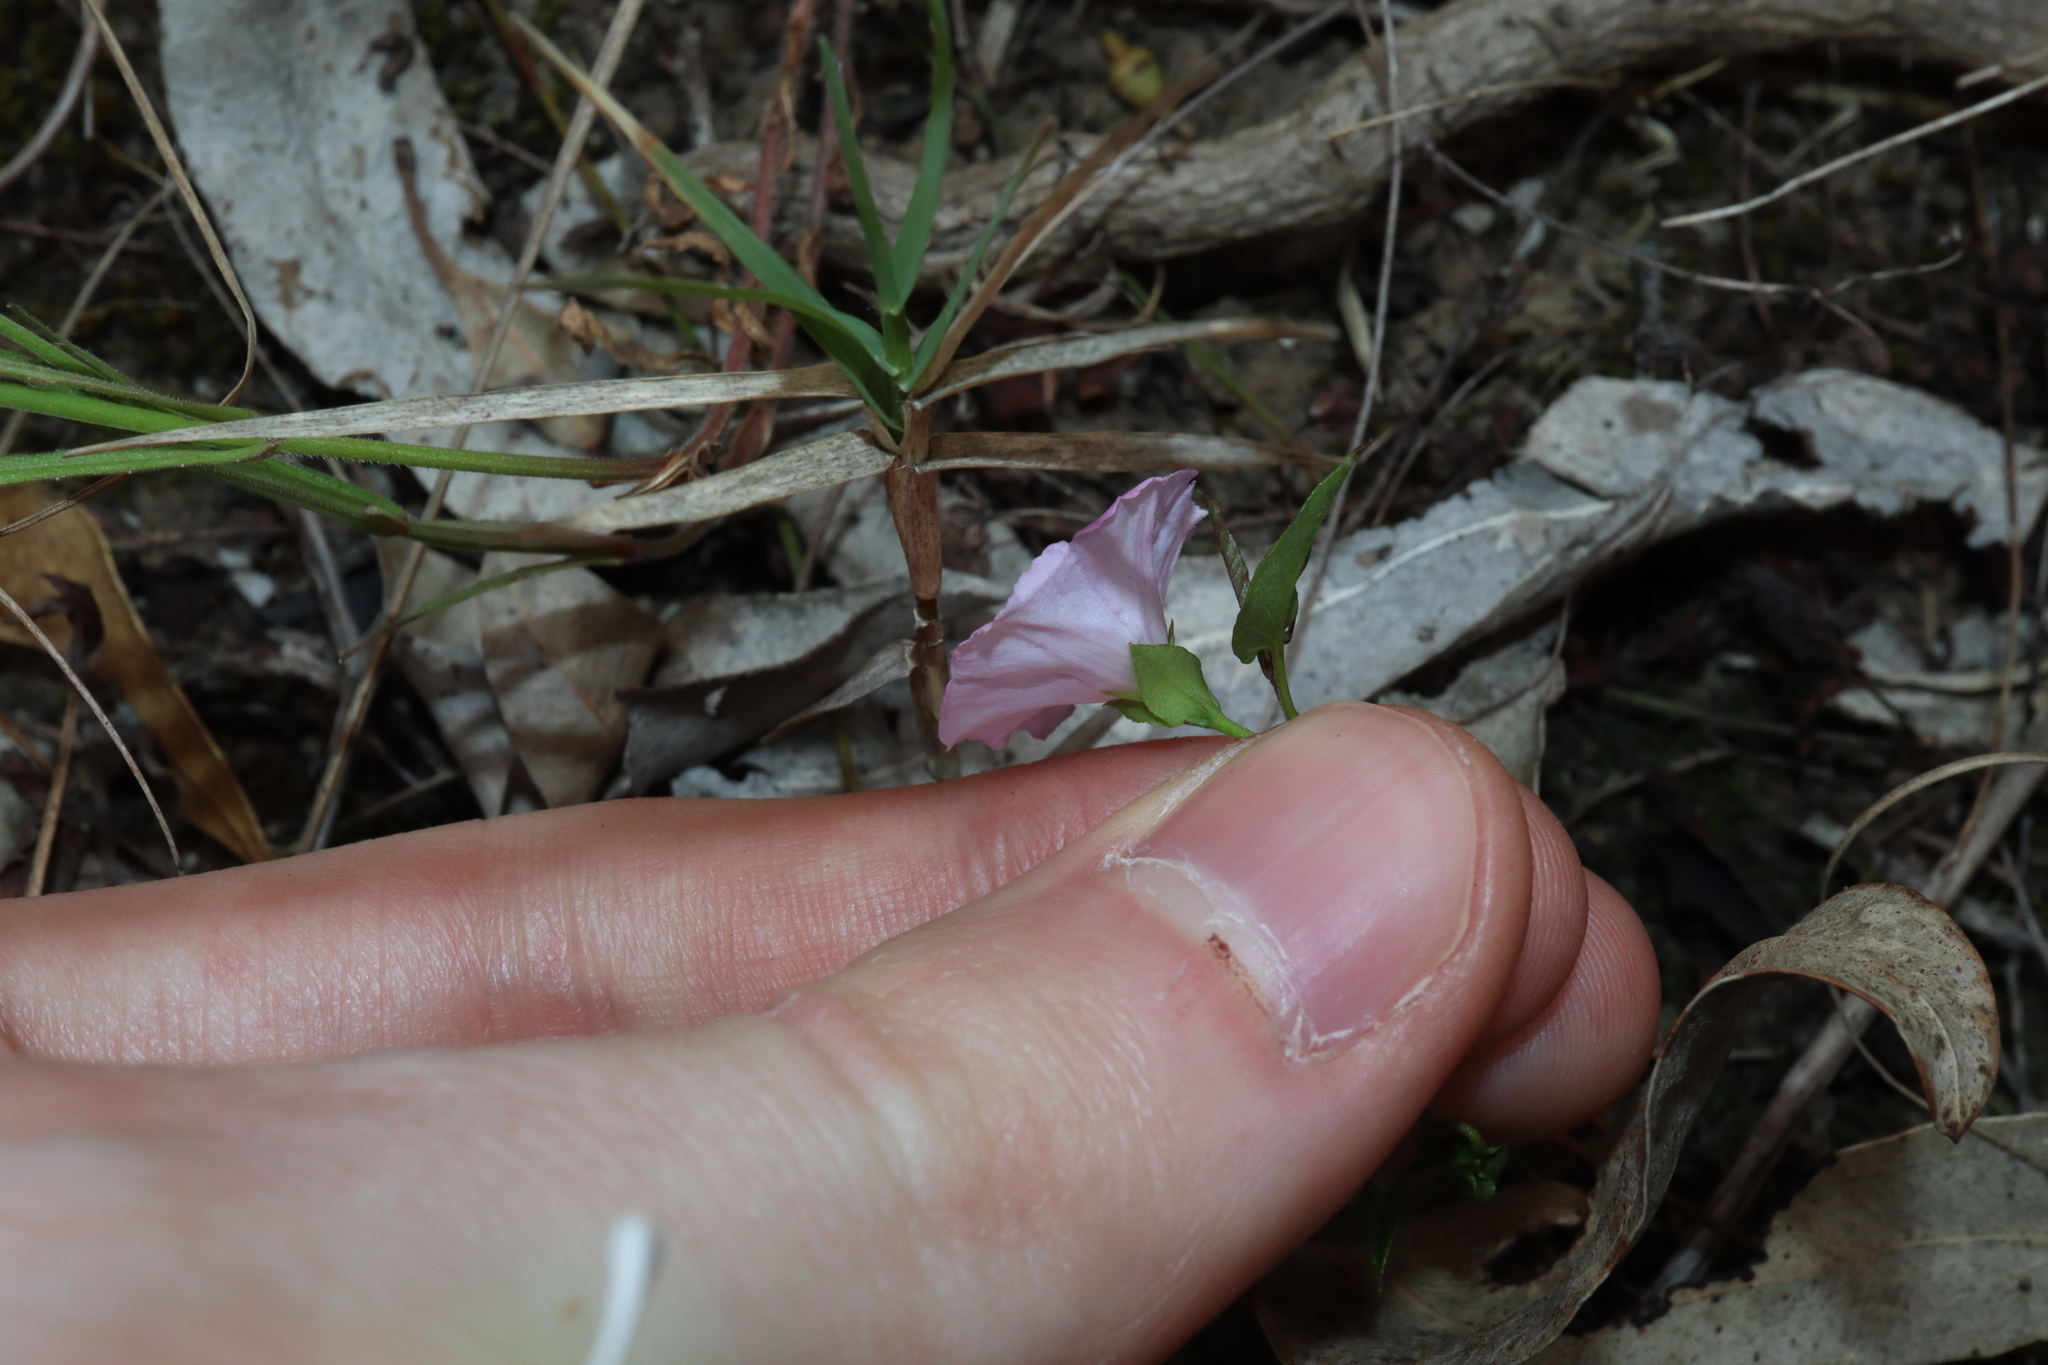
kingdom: Plantae
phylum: Tracheophyta
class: Magnoliopsida
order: Solanales
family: Convolvulaceae
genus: Polymeria
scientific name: Polymeria calycina
